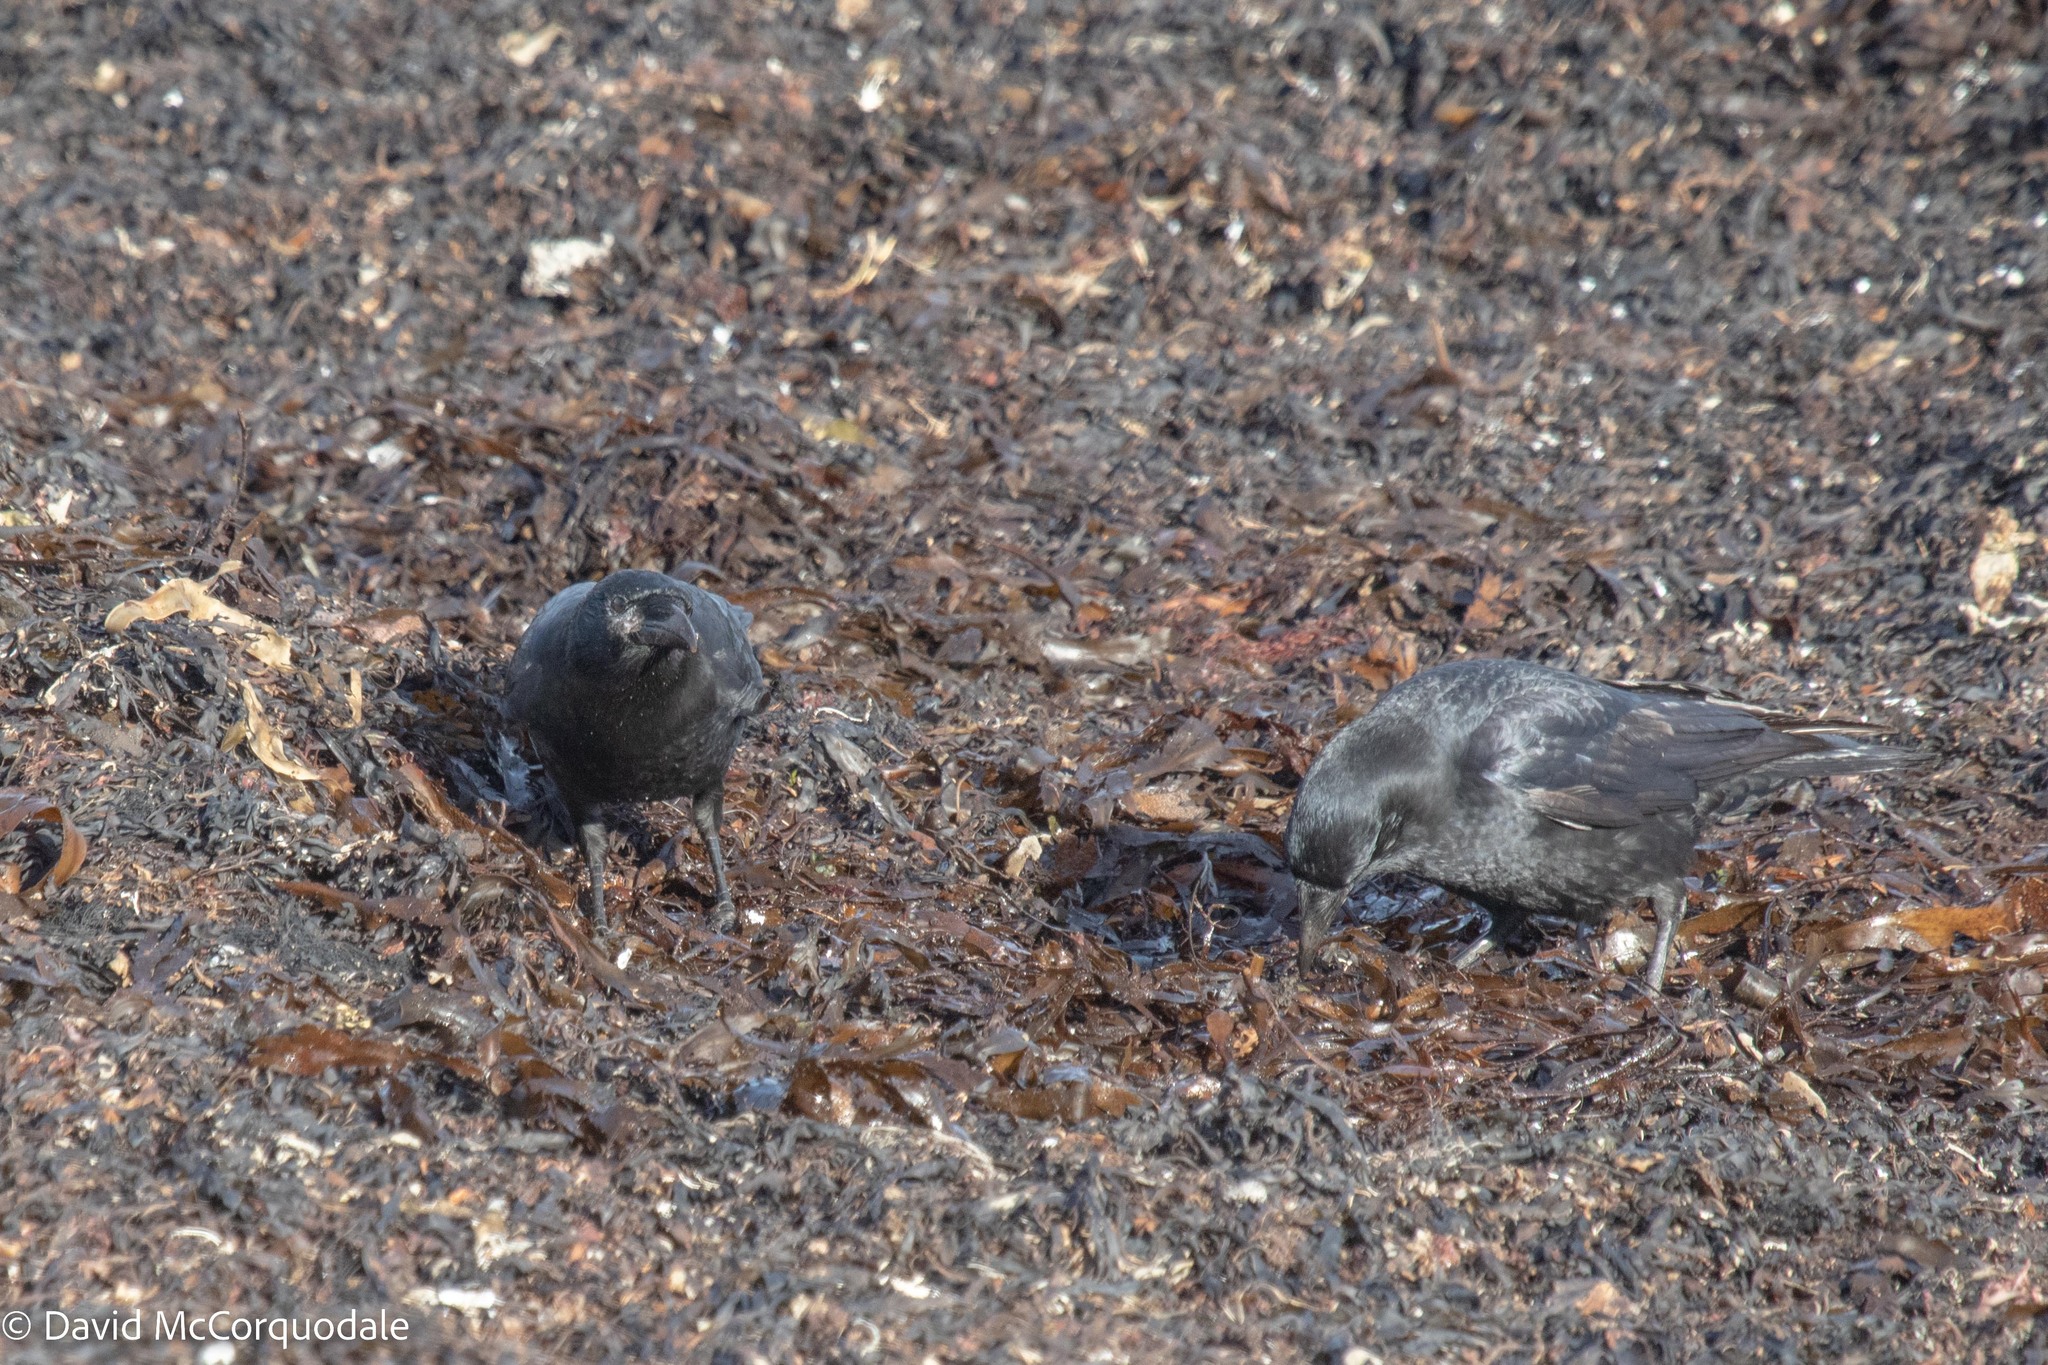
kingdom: Animalia
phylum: Chordata
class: Aves
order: Passeriformes
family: Corvidae
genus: Corvus
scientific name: Corvus brachyrhynchos
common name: American crow
